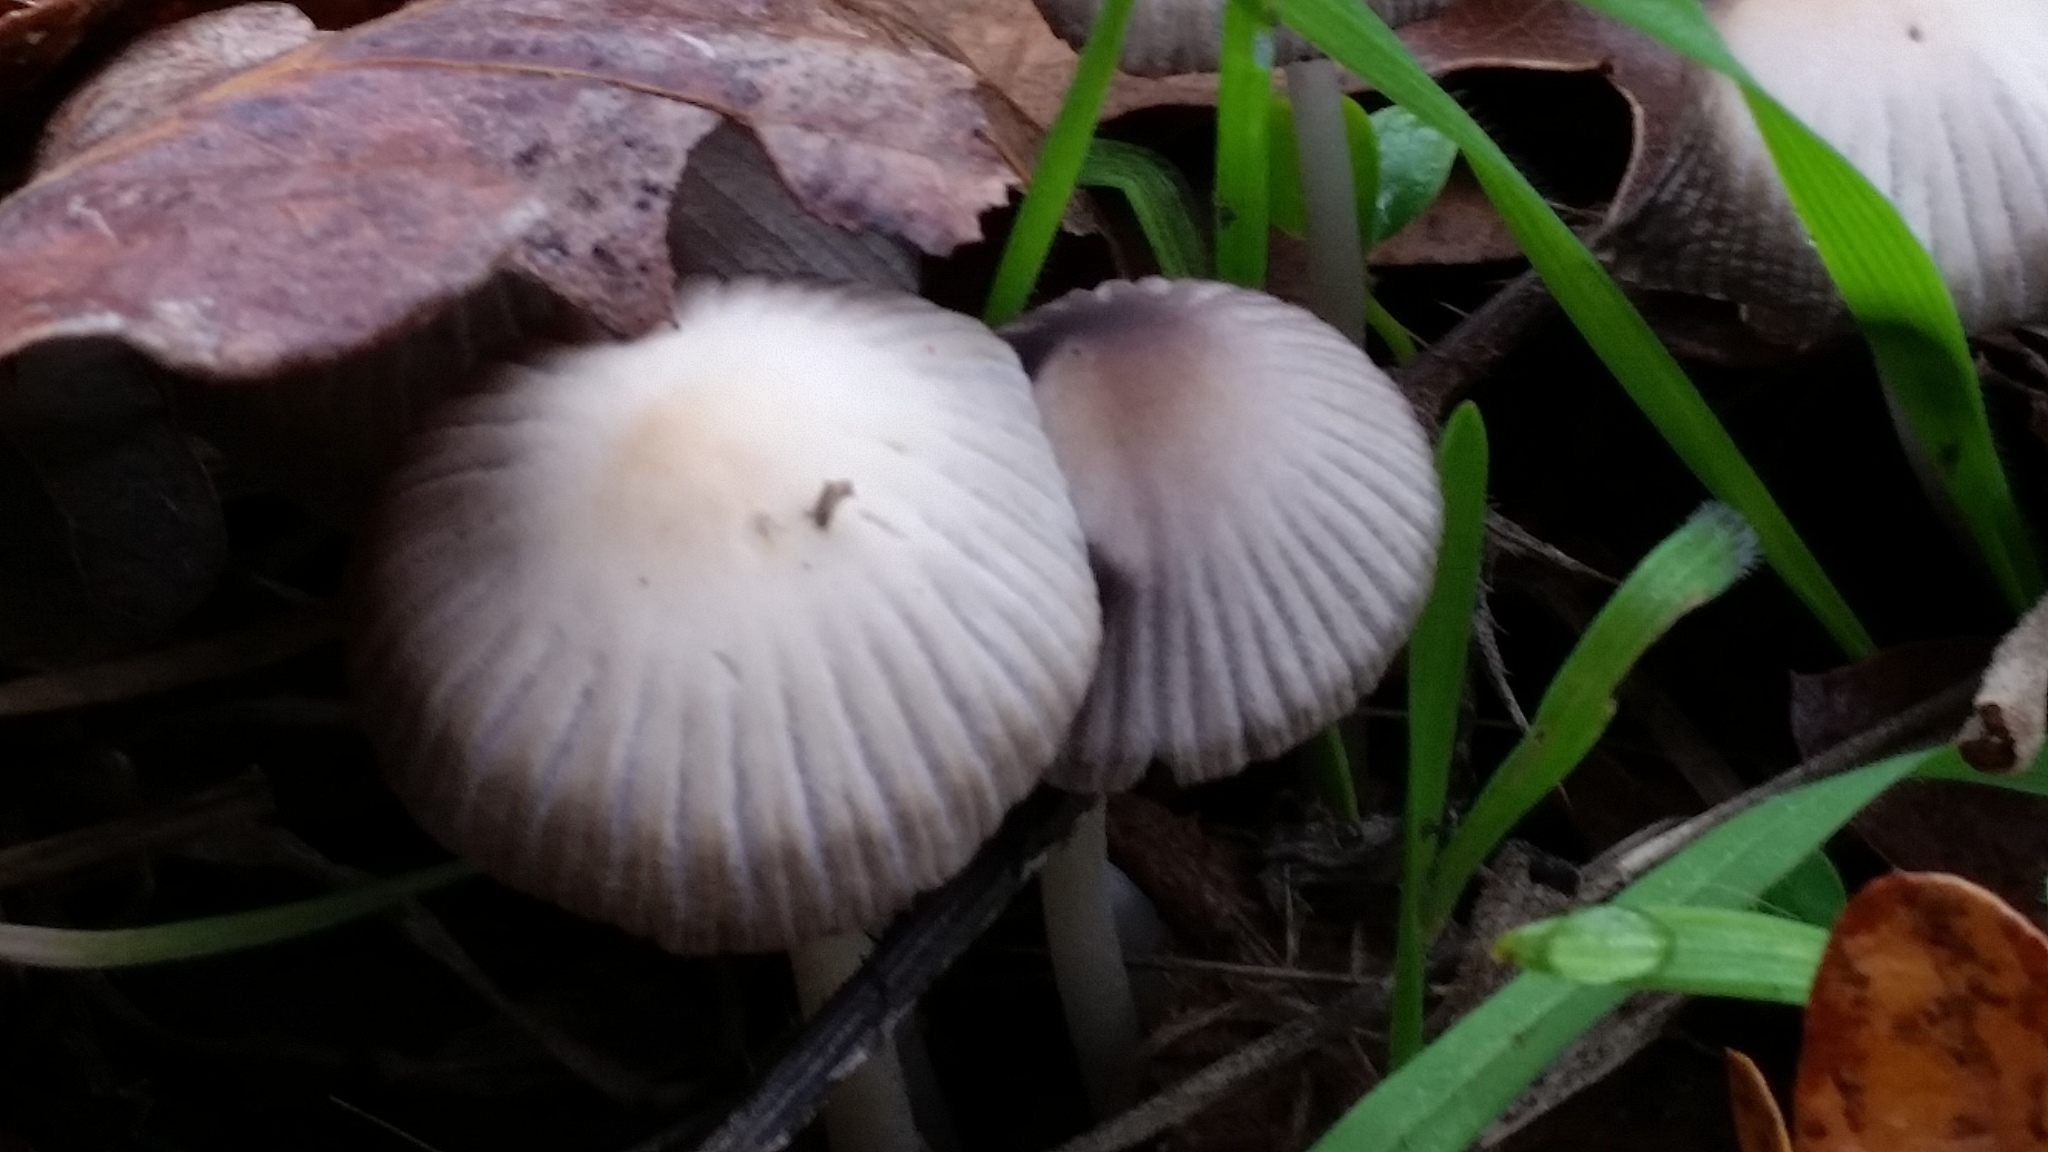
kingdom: Fungi
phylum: Basidiomycota
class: Agaricomycetes
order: Agaricales
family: Psathyrellaceae
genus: Tulosesus
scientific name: Tulosesus impatiens
